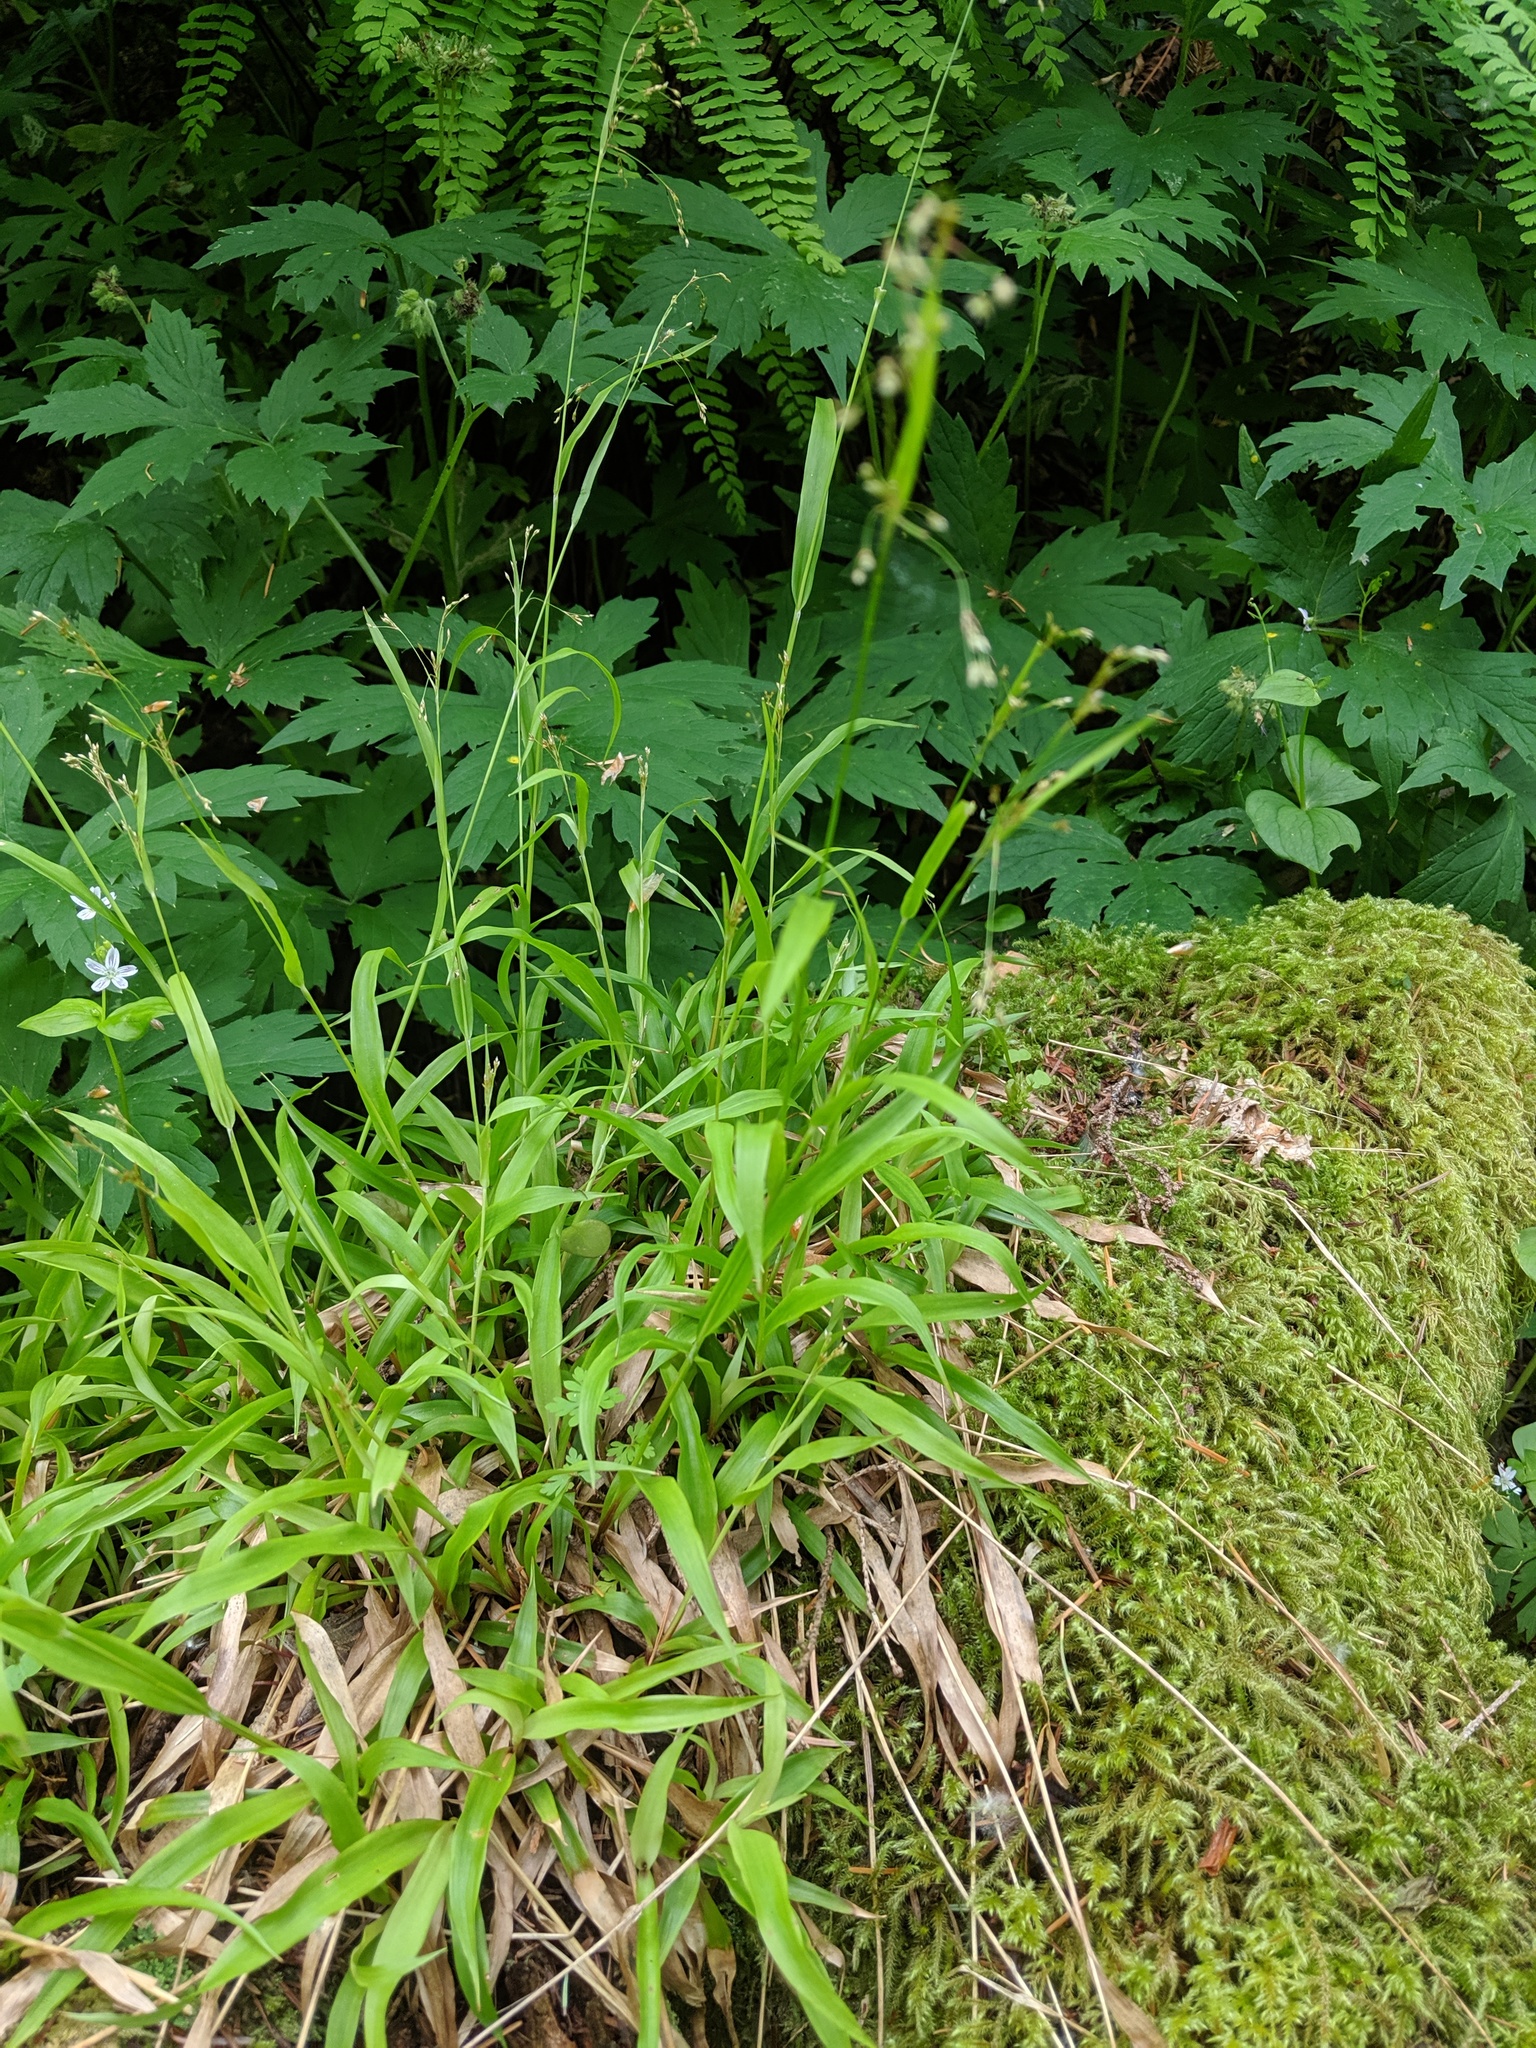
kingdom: Plantae
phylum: Tracheophyta
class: Liliopsida
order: Poales
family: Juncaceae
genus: Luzula
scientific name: Luzula parviflora
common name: Millet woodrush
